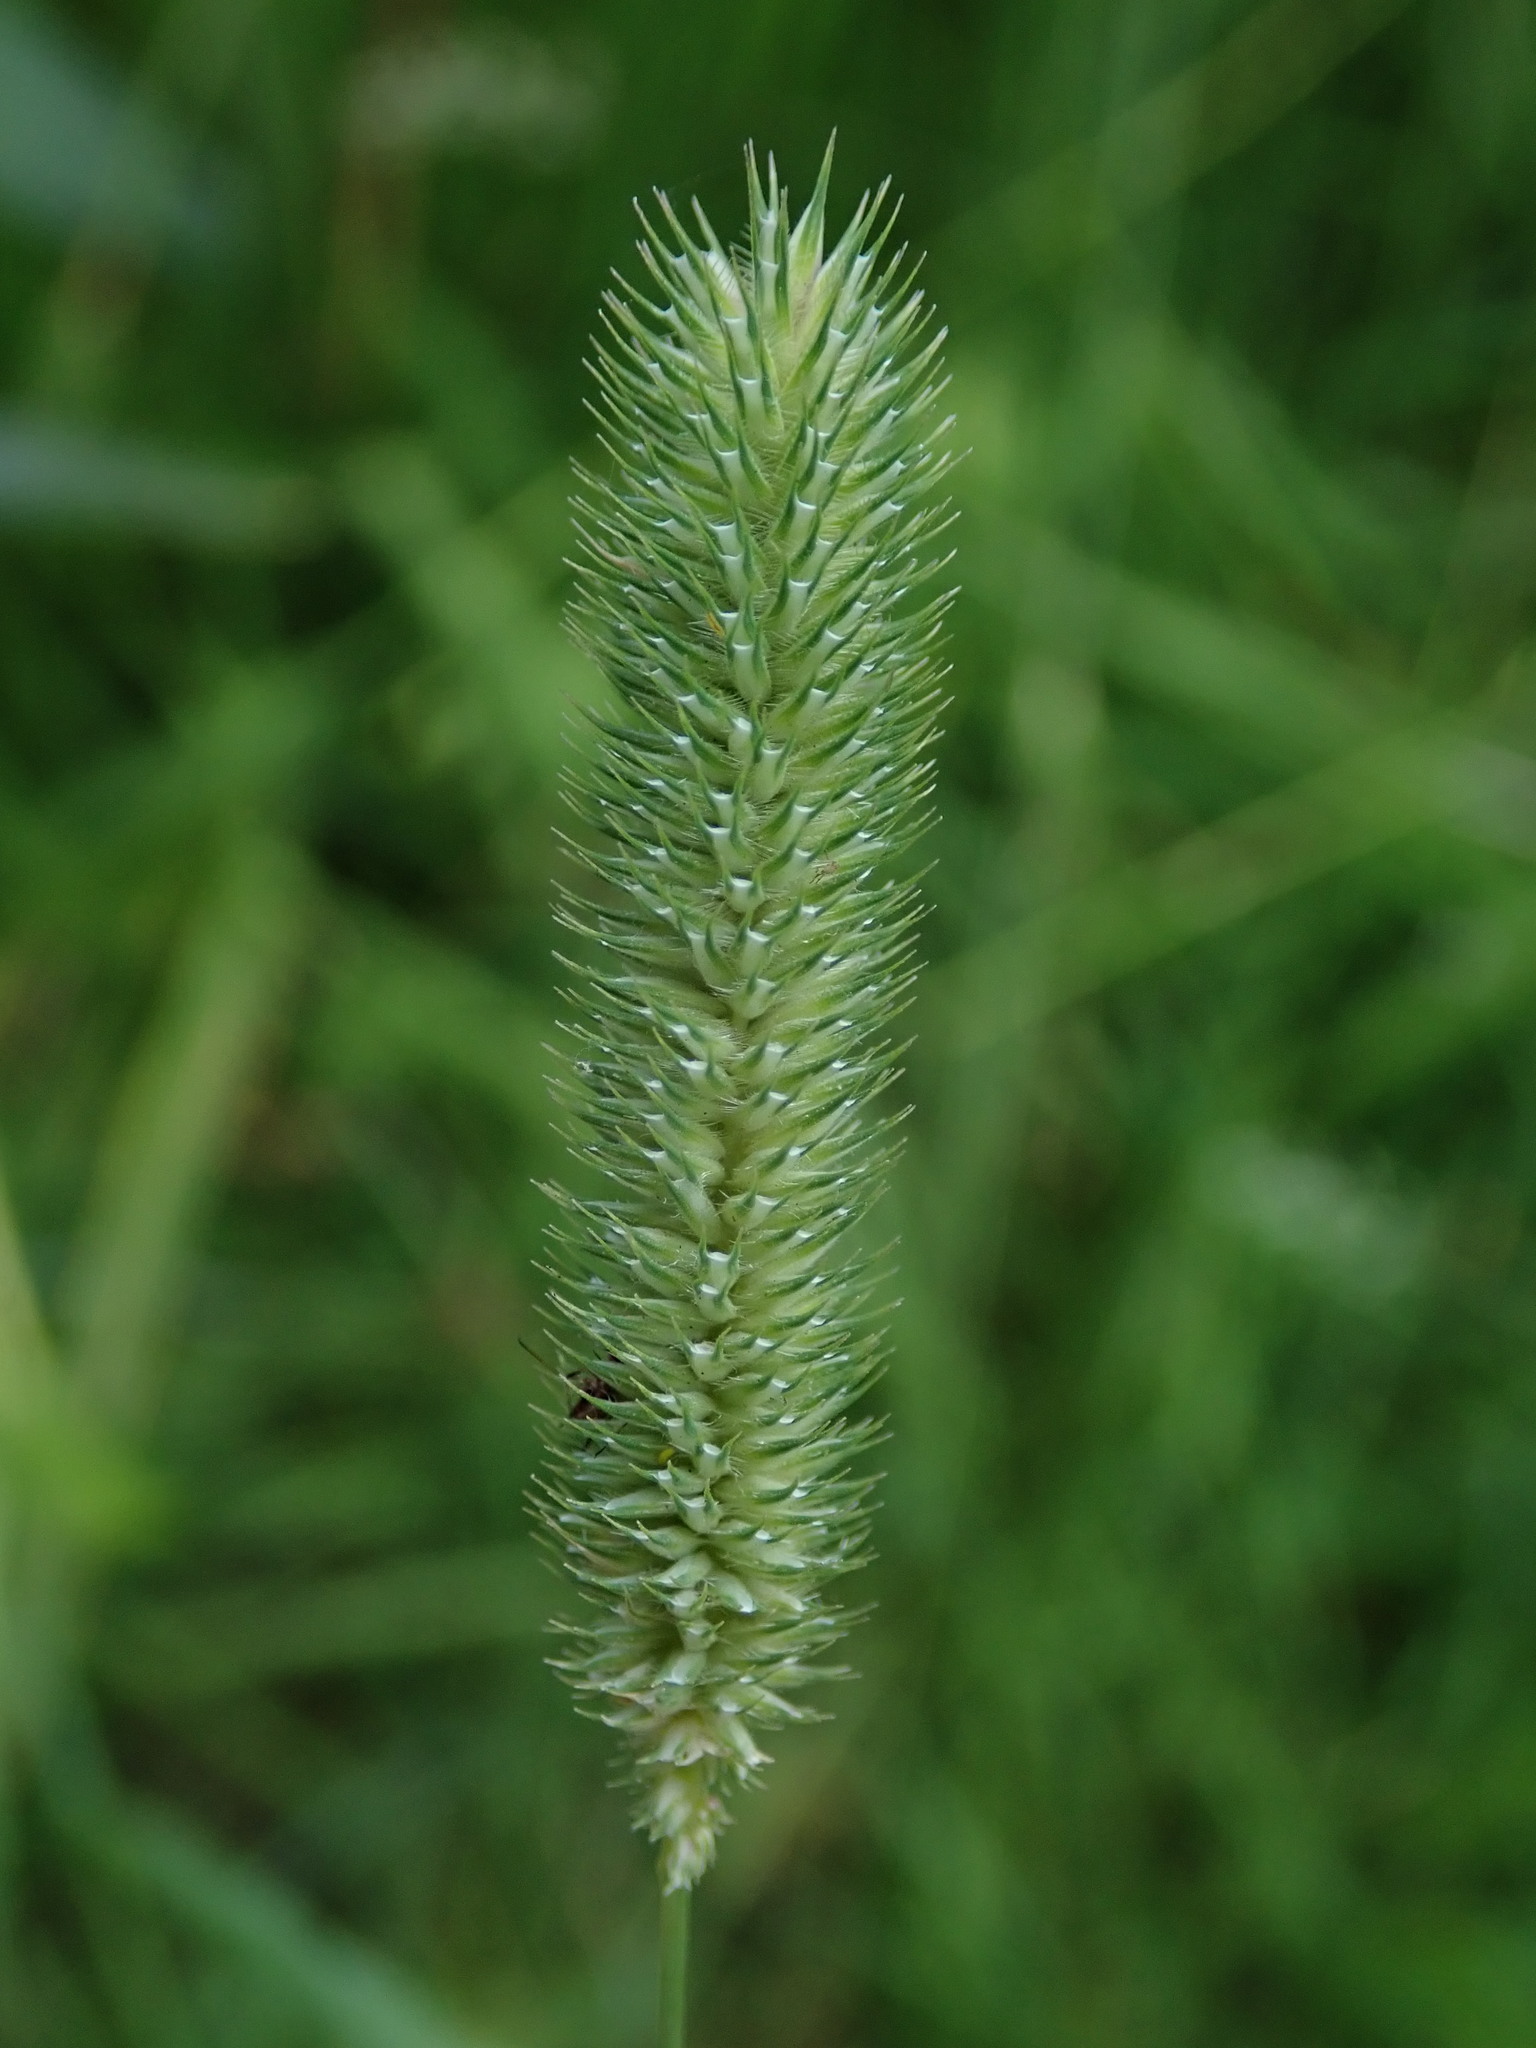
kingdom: Plantae
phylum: Tracheophyta
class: Liliopsida
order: Poales
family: Poaceae
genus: Phleum
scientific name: Phleum pratense
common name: Timothy grass
